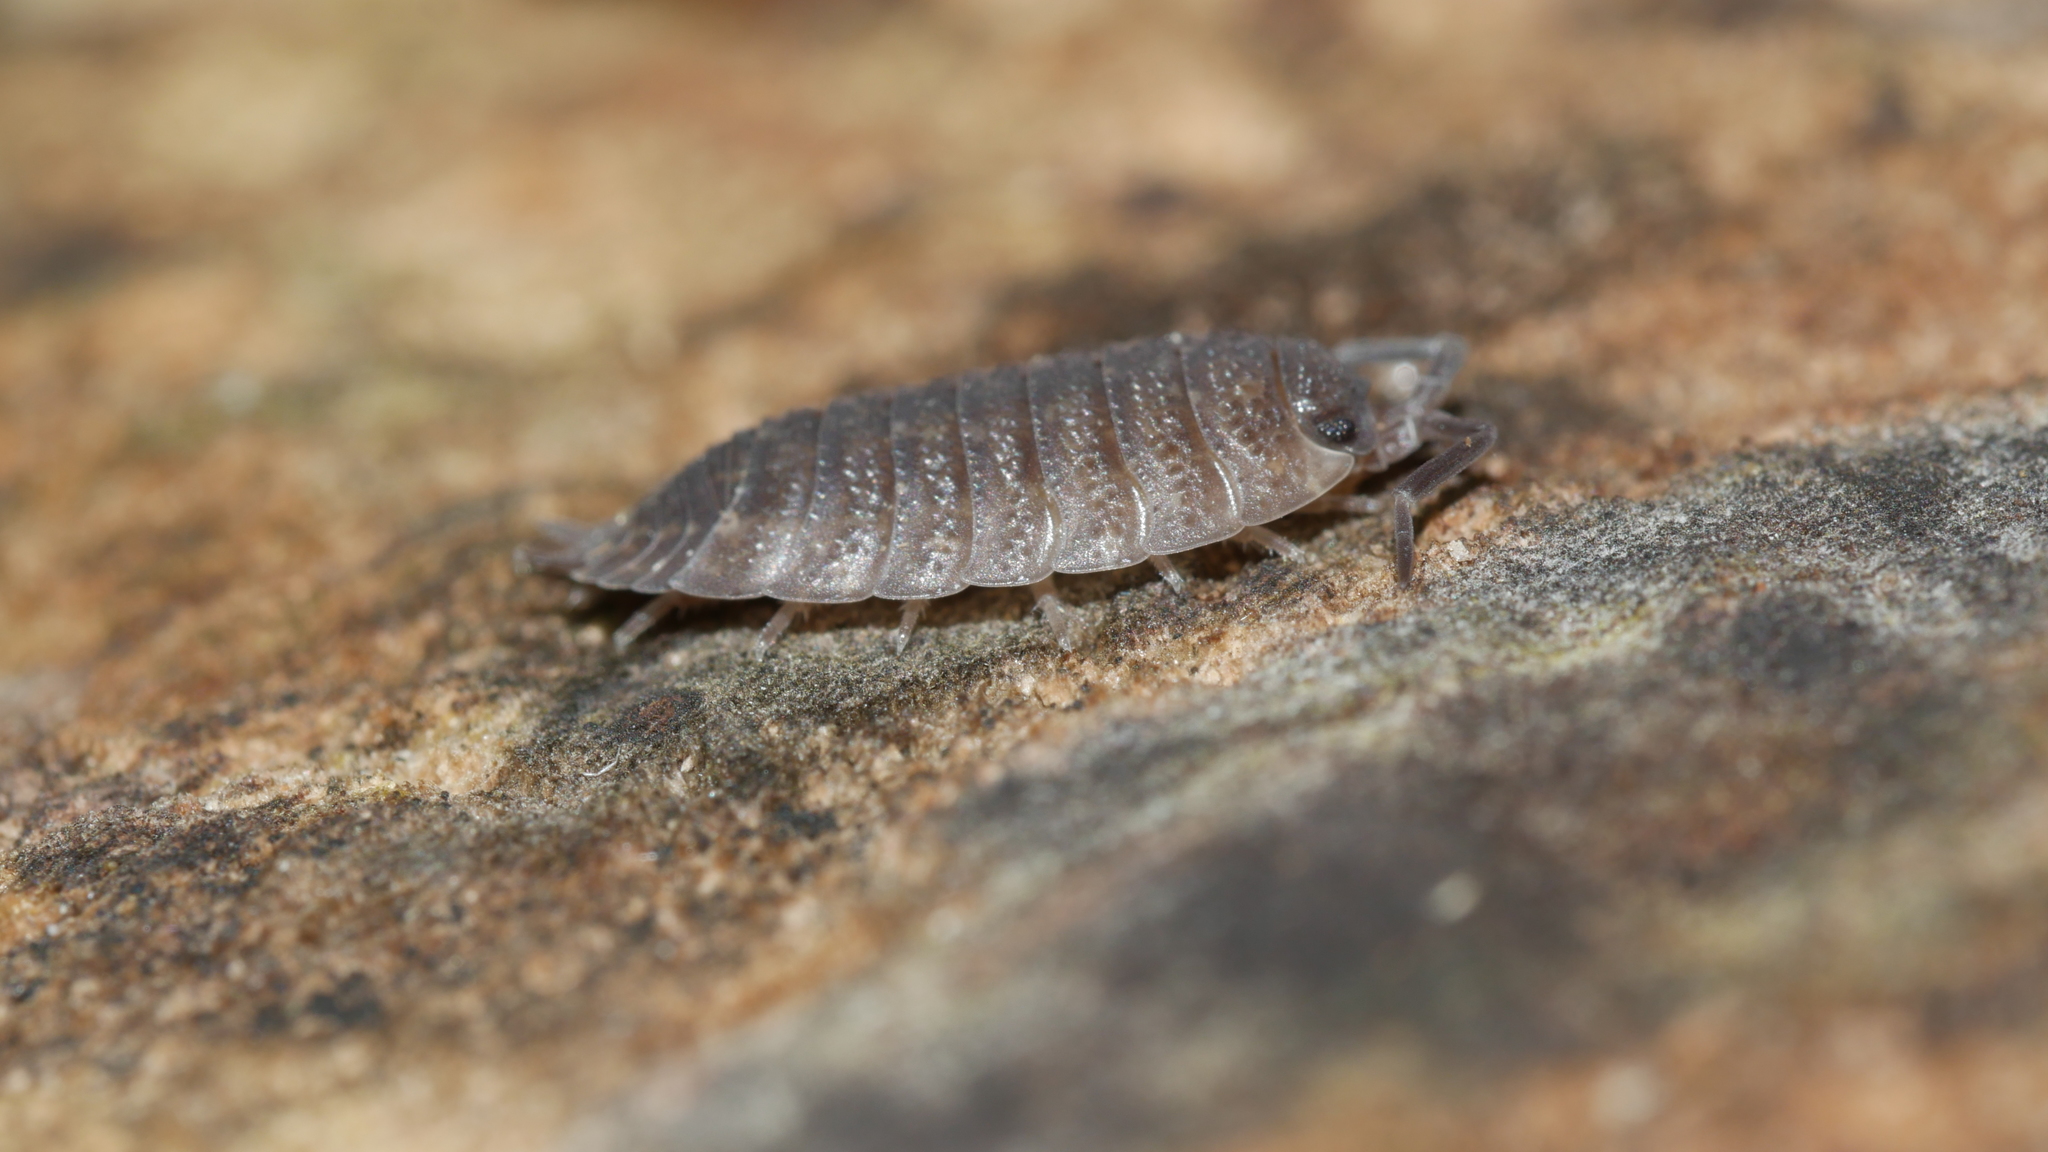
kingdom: Animalia
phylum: Arthropoda
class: Malacostraca
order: Isopoda
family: Porcellionidae
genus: Porcellio
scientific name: Porcellio scaber
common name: Common rough woodlouse
